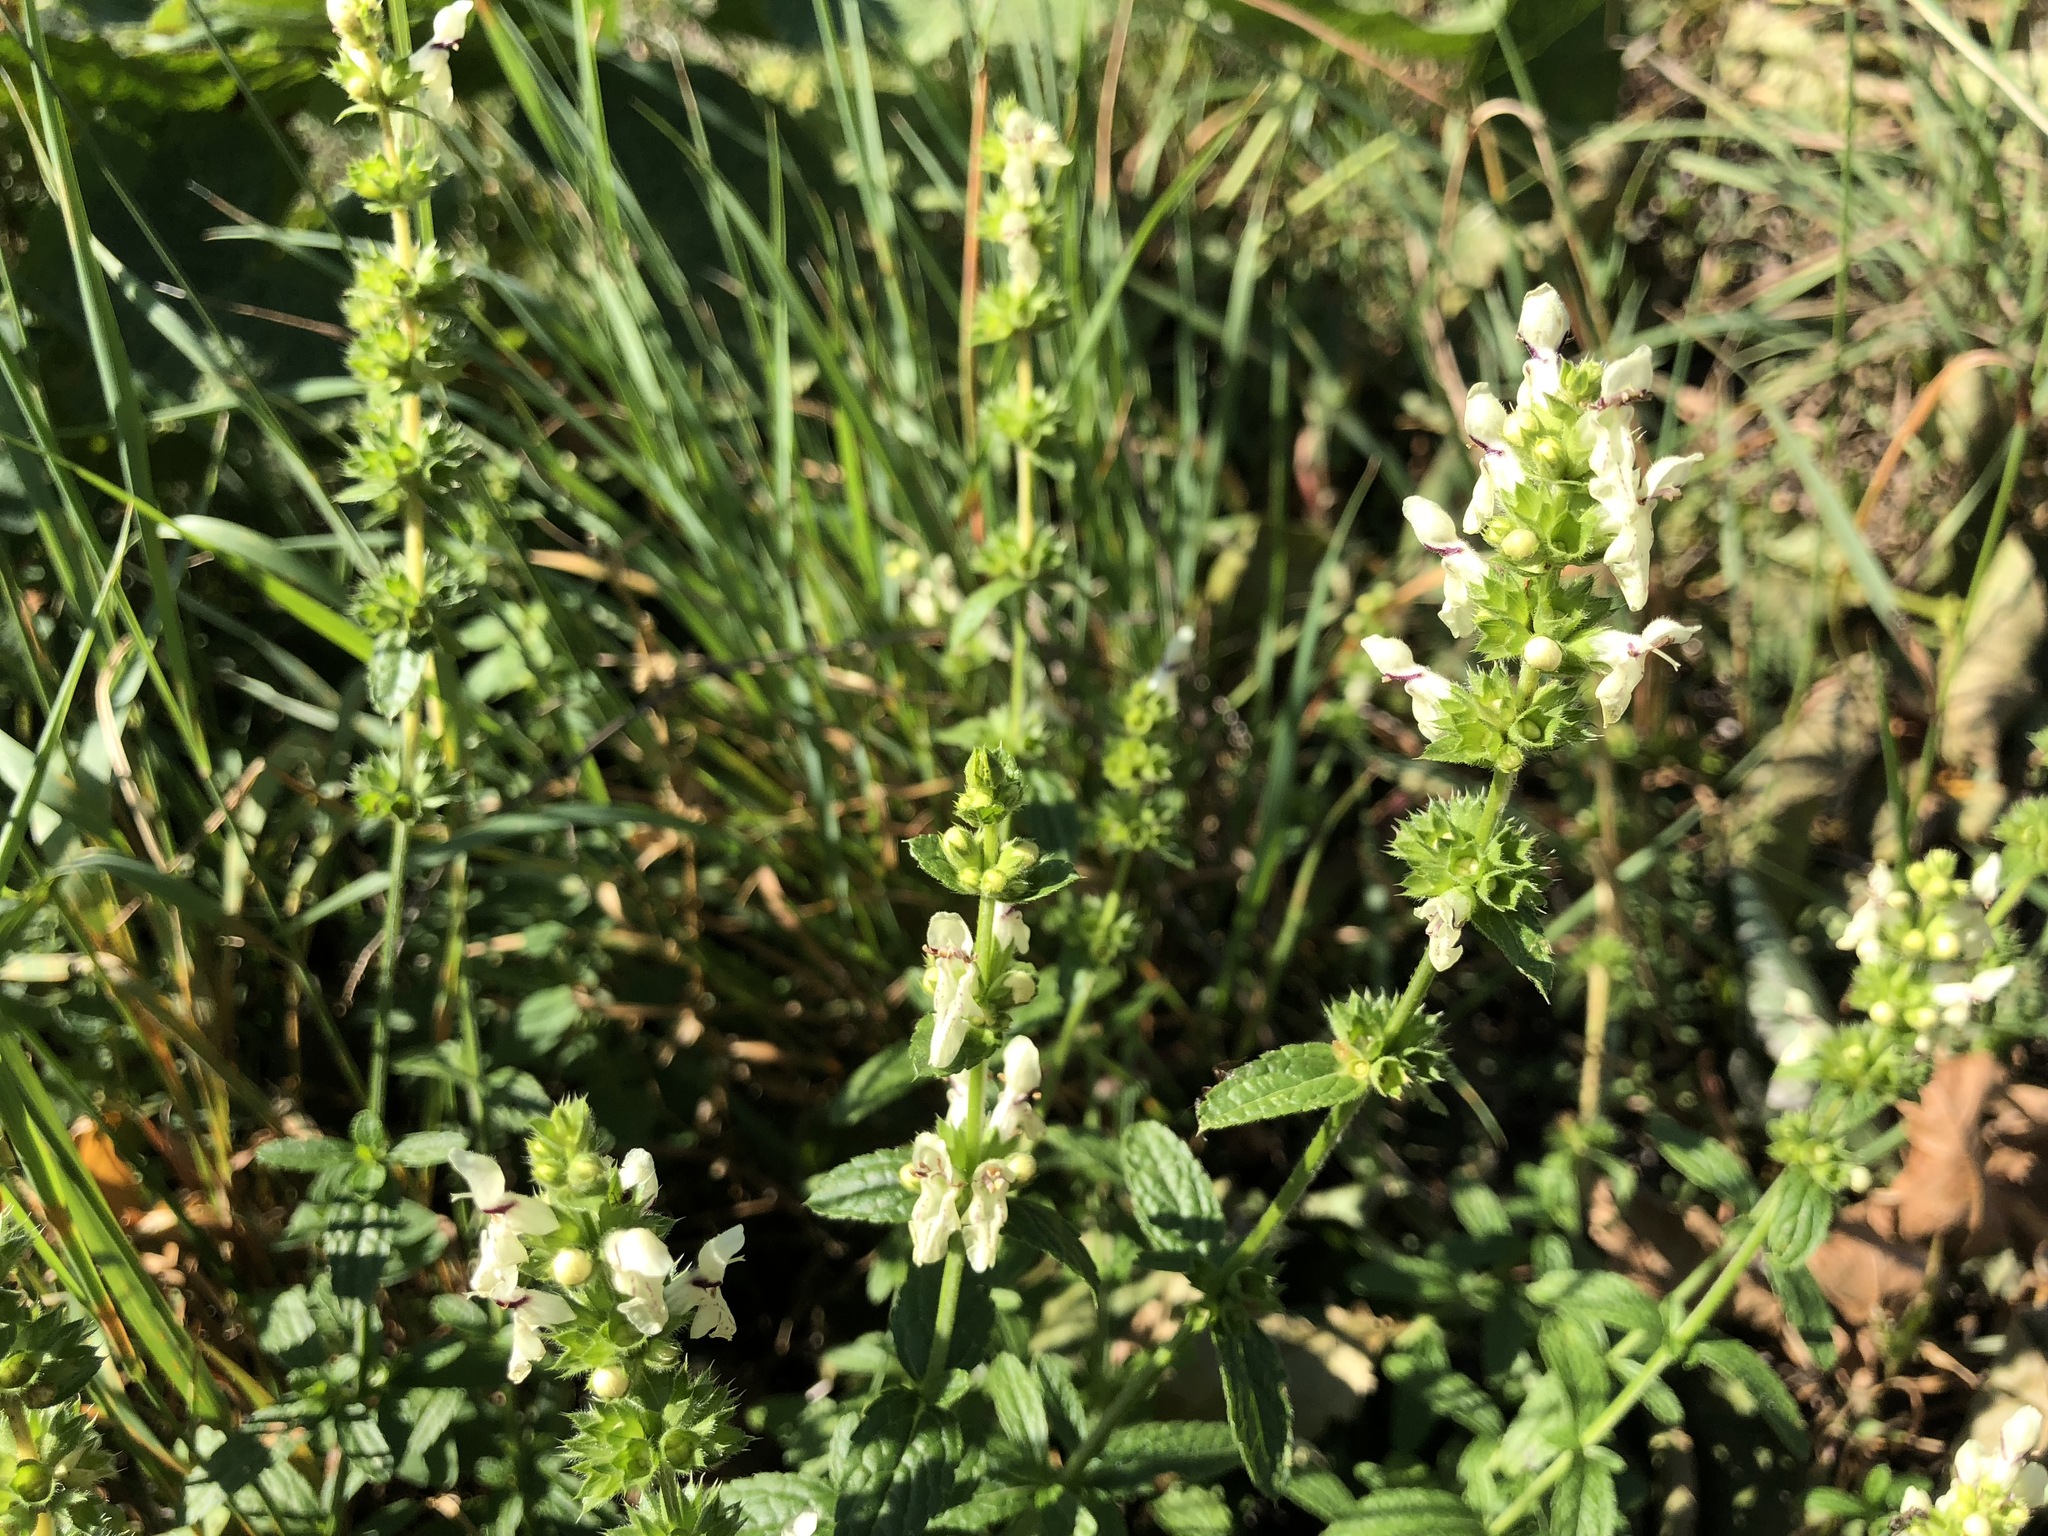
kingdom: Plantae
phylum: Tracheophyta
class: Magnoliopsida
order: Lamiales
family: Lamiaceae
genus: Stachys
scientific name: Stachys recta
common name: Perennial yellow-woundwort
